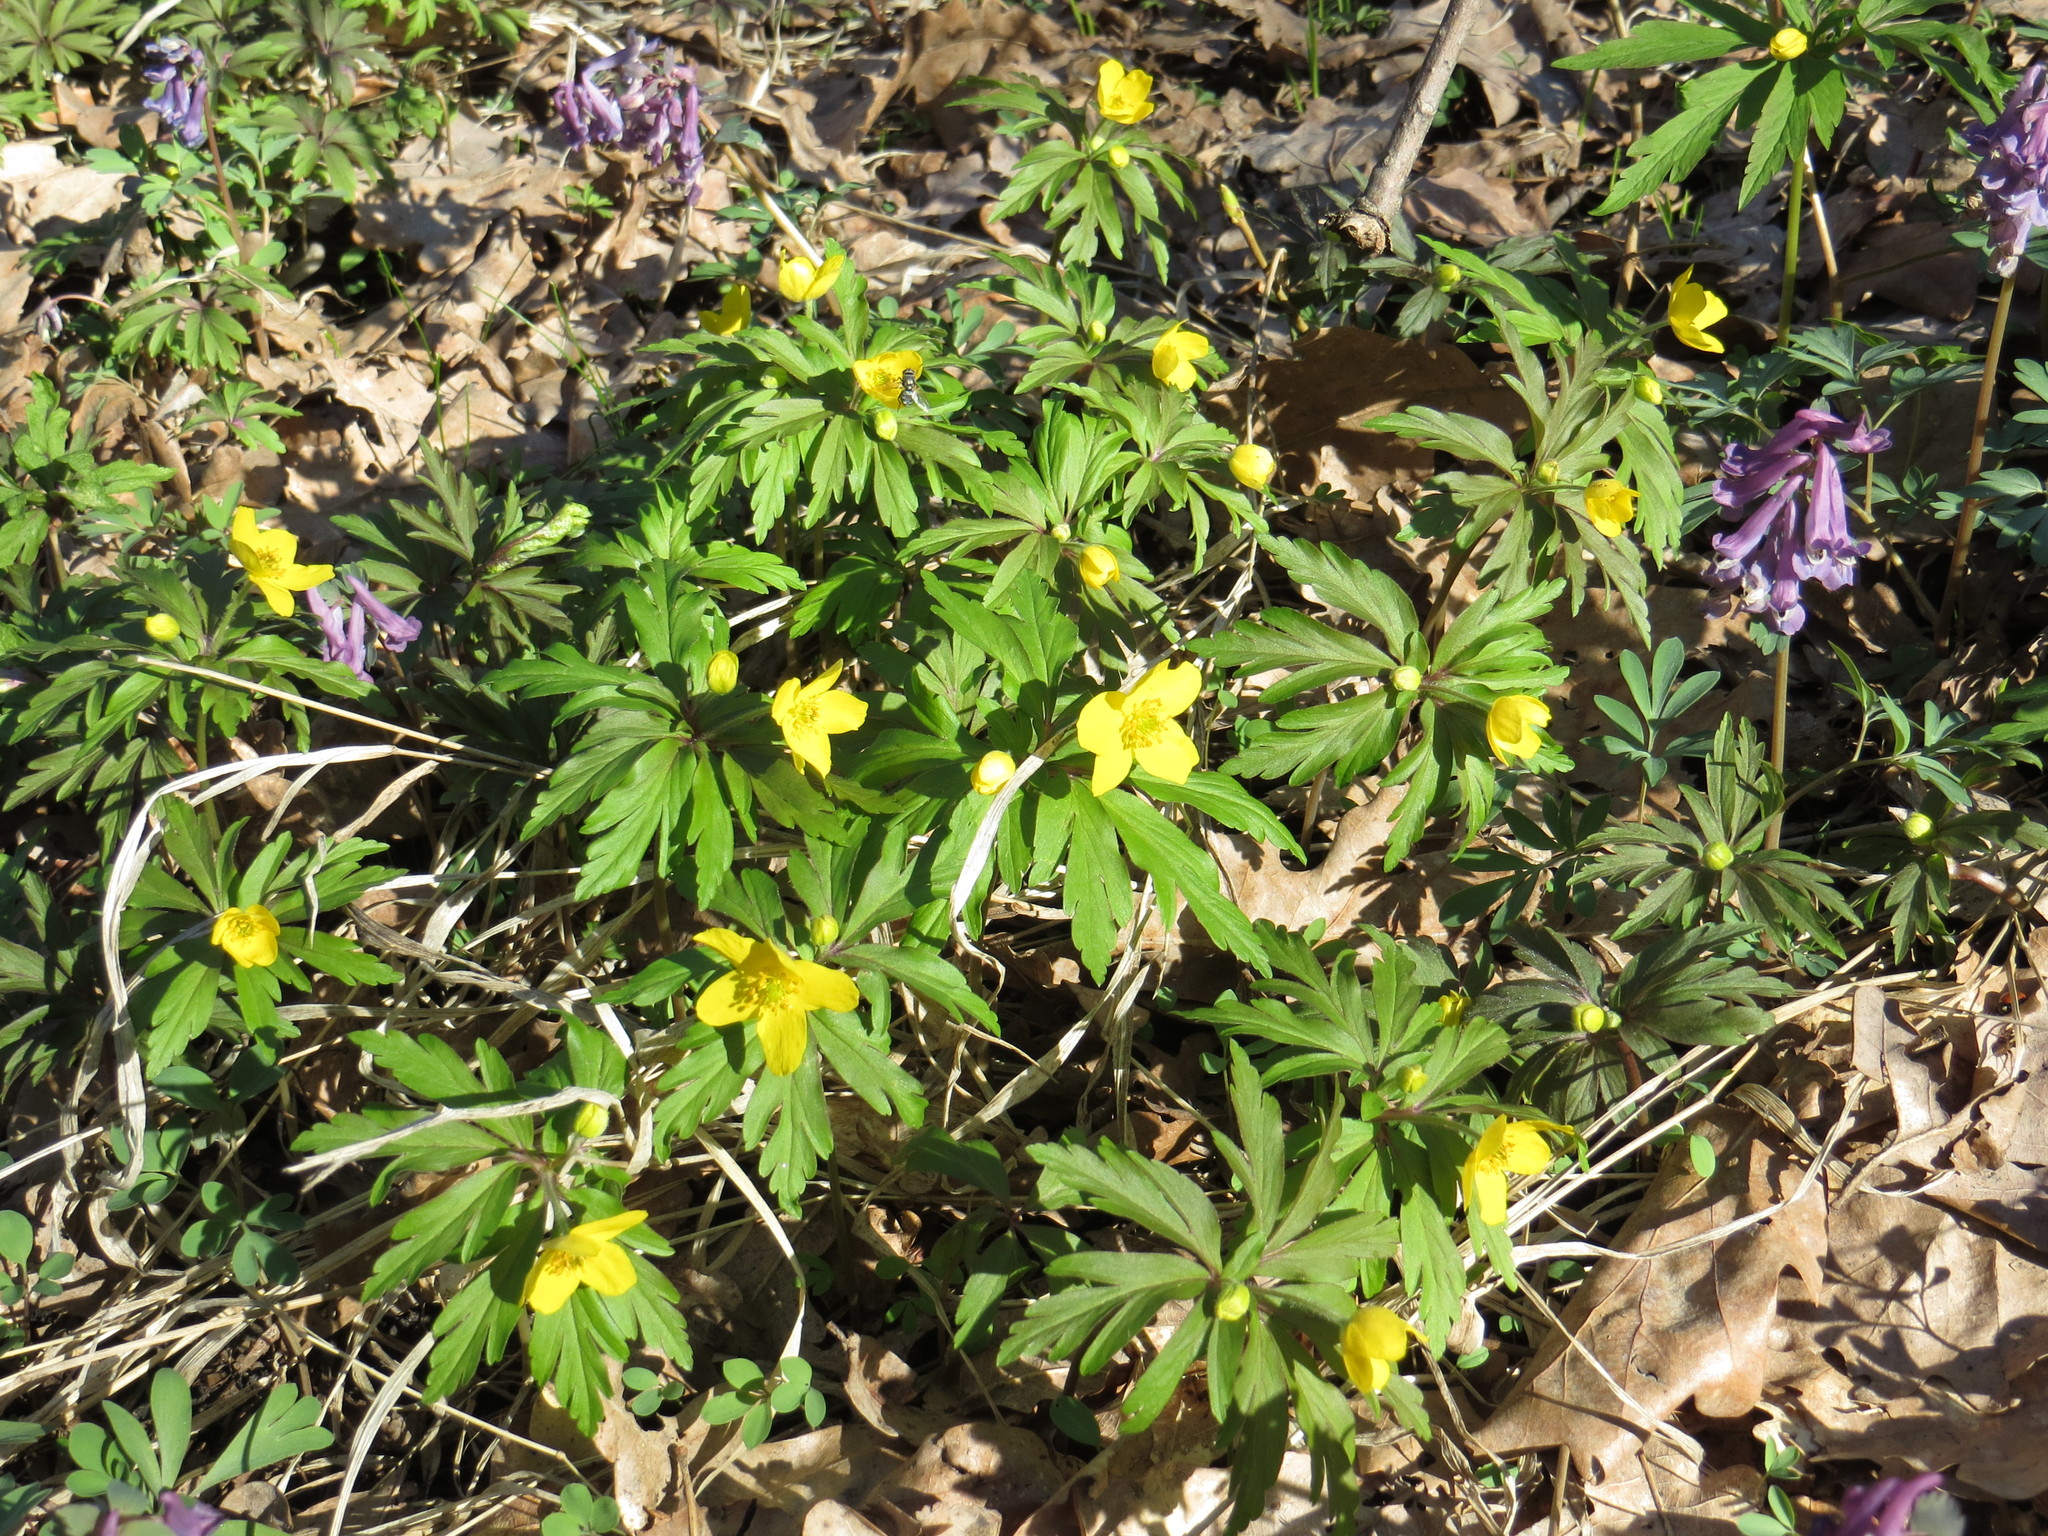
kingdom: Plantae
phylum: Tracheophyta
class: Magnoliopsida
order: Ranunculales
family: Ranunculaceae
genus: Anemone
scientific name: Anemone ranunculoides
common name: Yellow anemone
